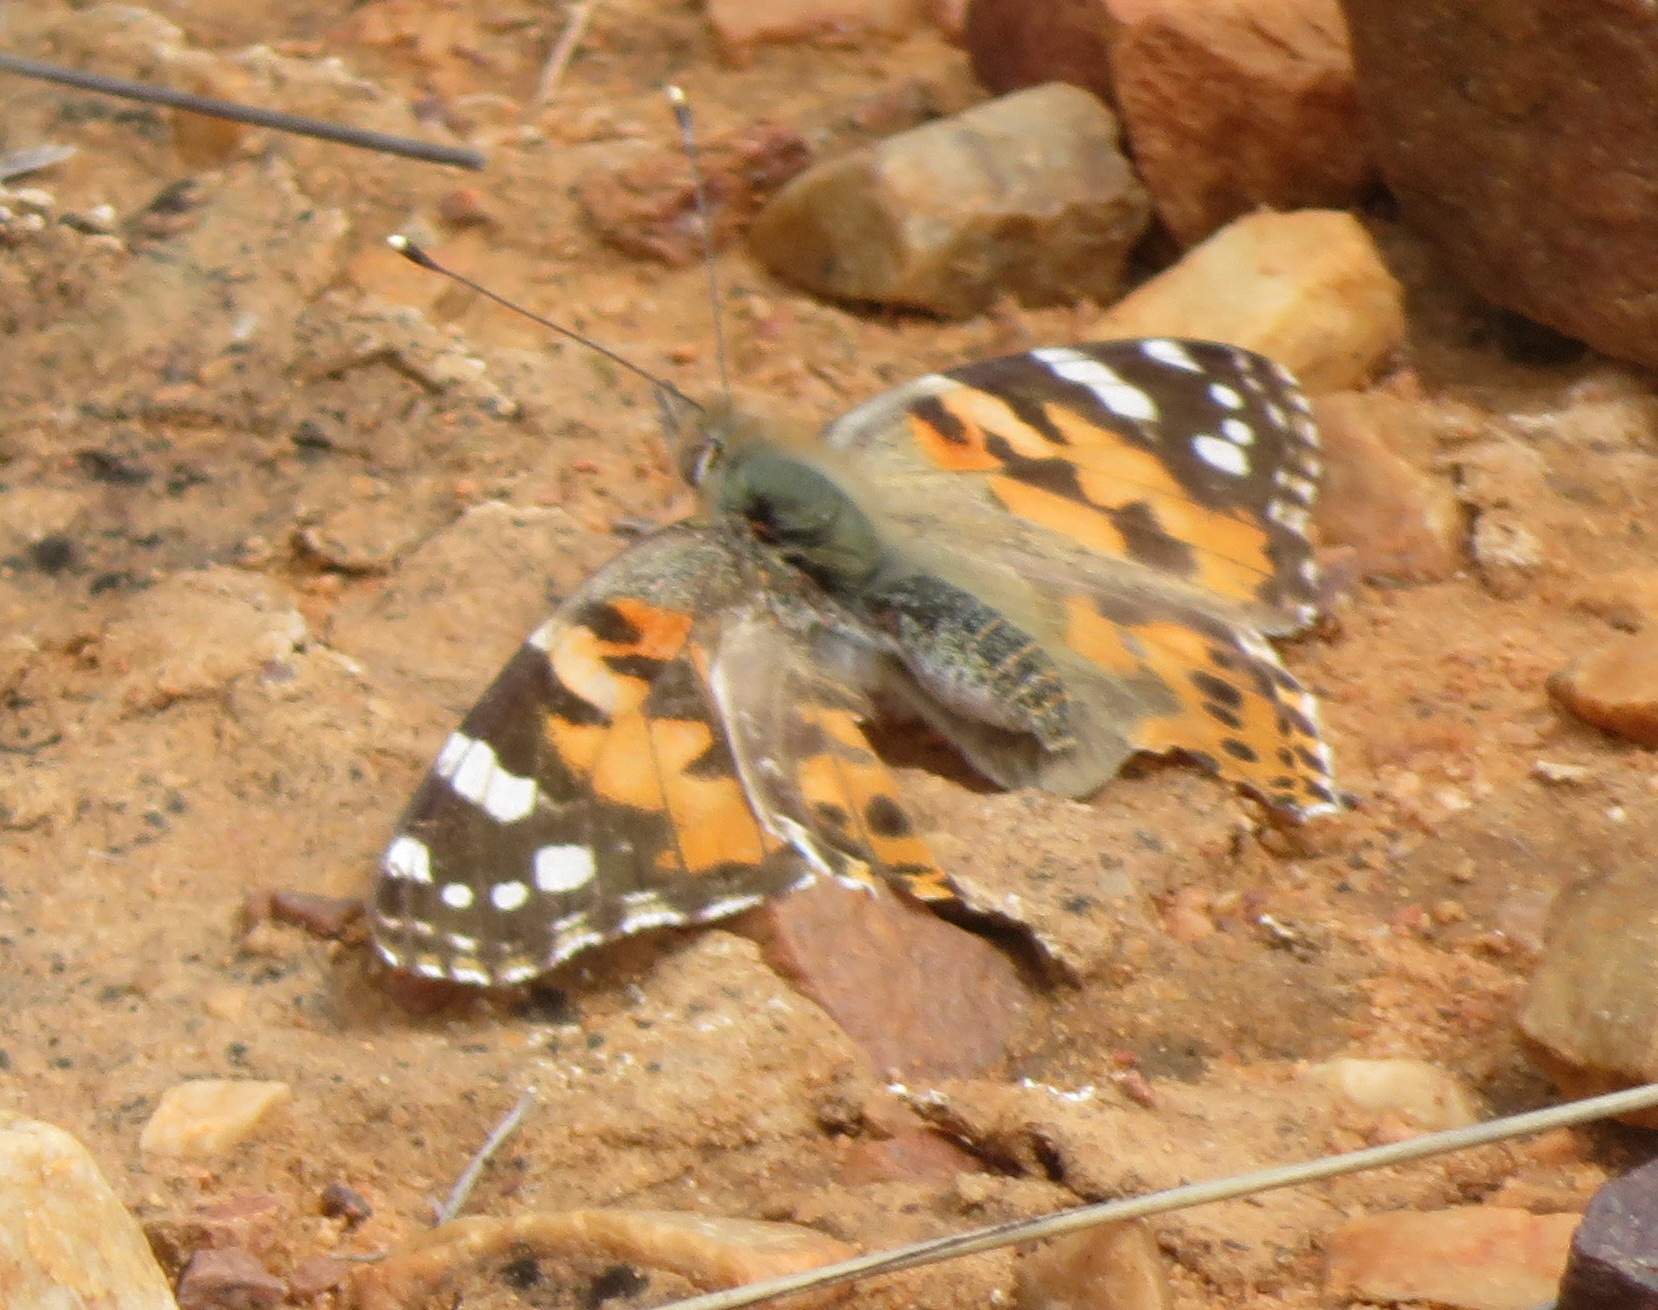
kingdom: Animalia
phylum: Arthropoda
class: Insecta
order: Lepidoptera
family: Nymphalidae
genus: Vanessa
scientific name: Vanessa cardui
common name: Painted lady
